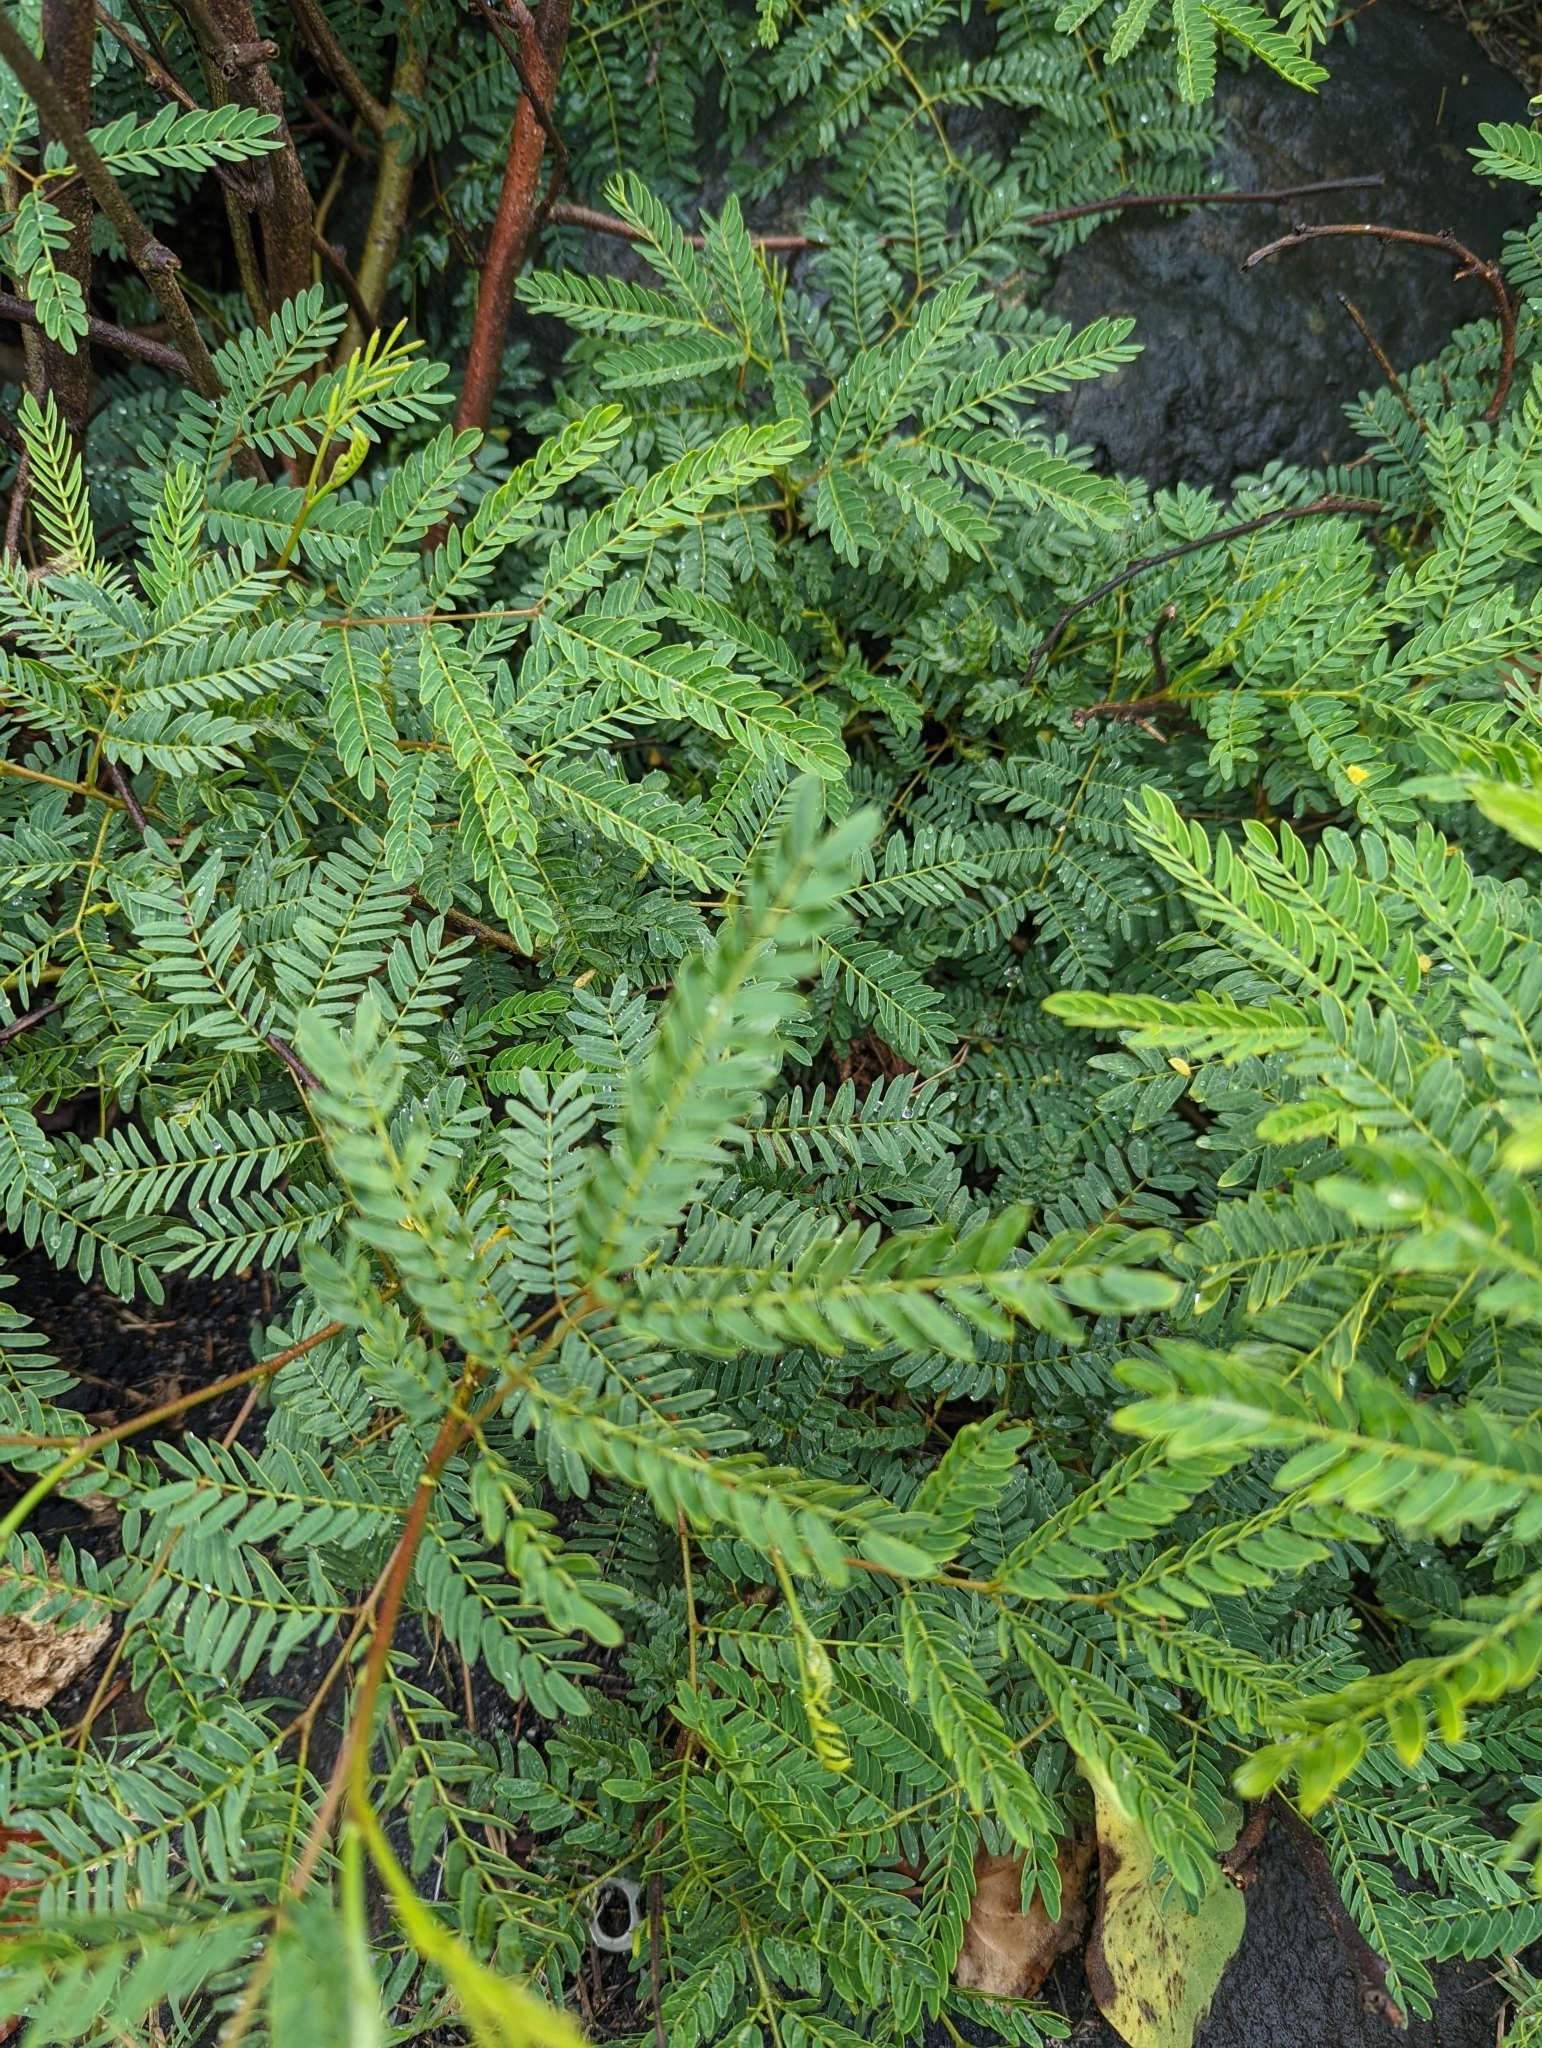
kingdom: Plantae
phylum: Tracheophyta
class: Magnoliopsida
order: Fabales
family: Fabaceae
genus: Leucaena
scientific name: Leucaena leucocephala
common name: White leadtree
